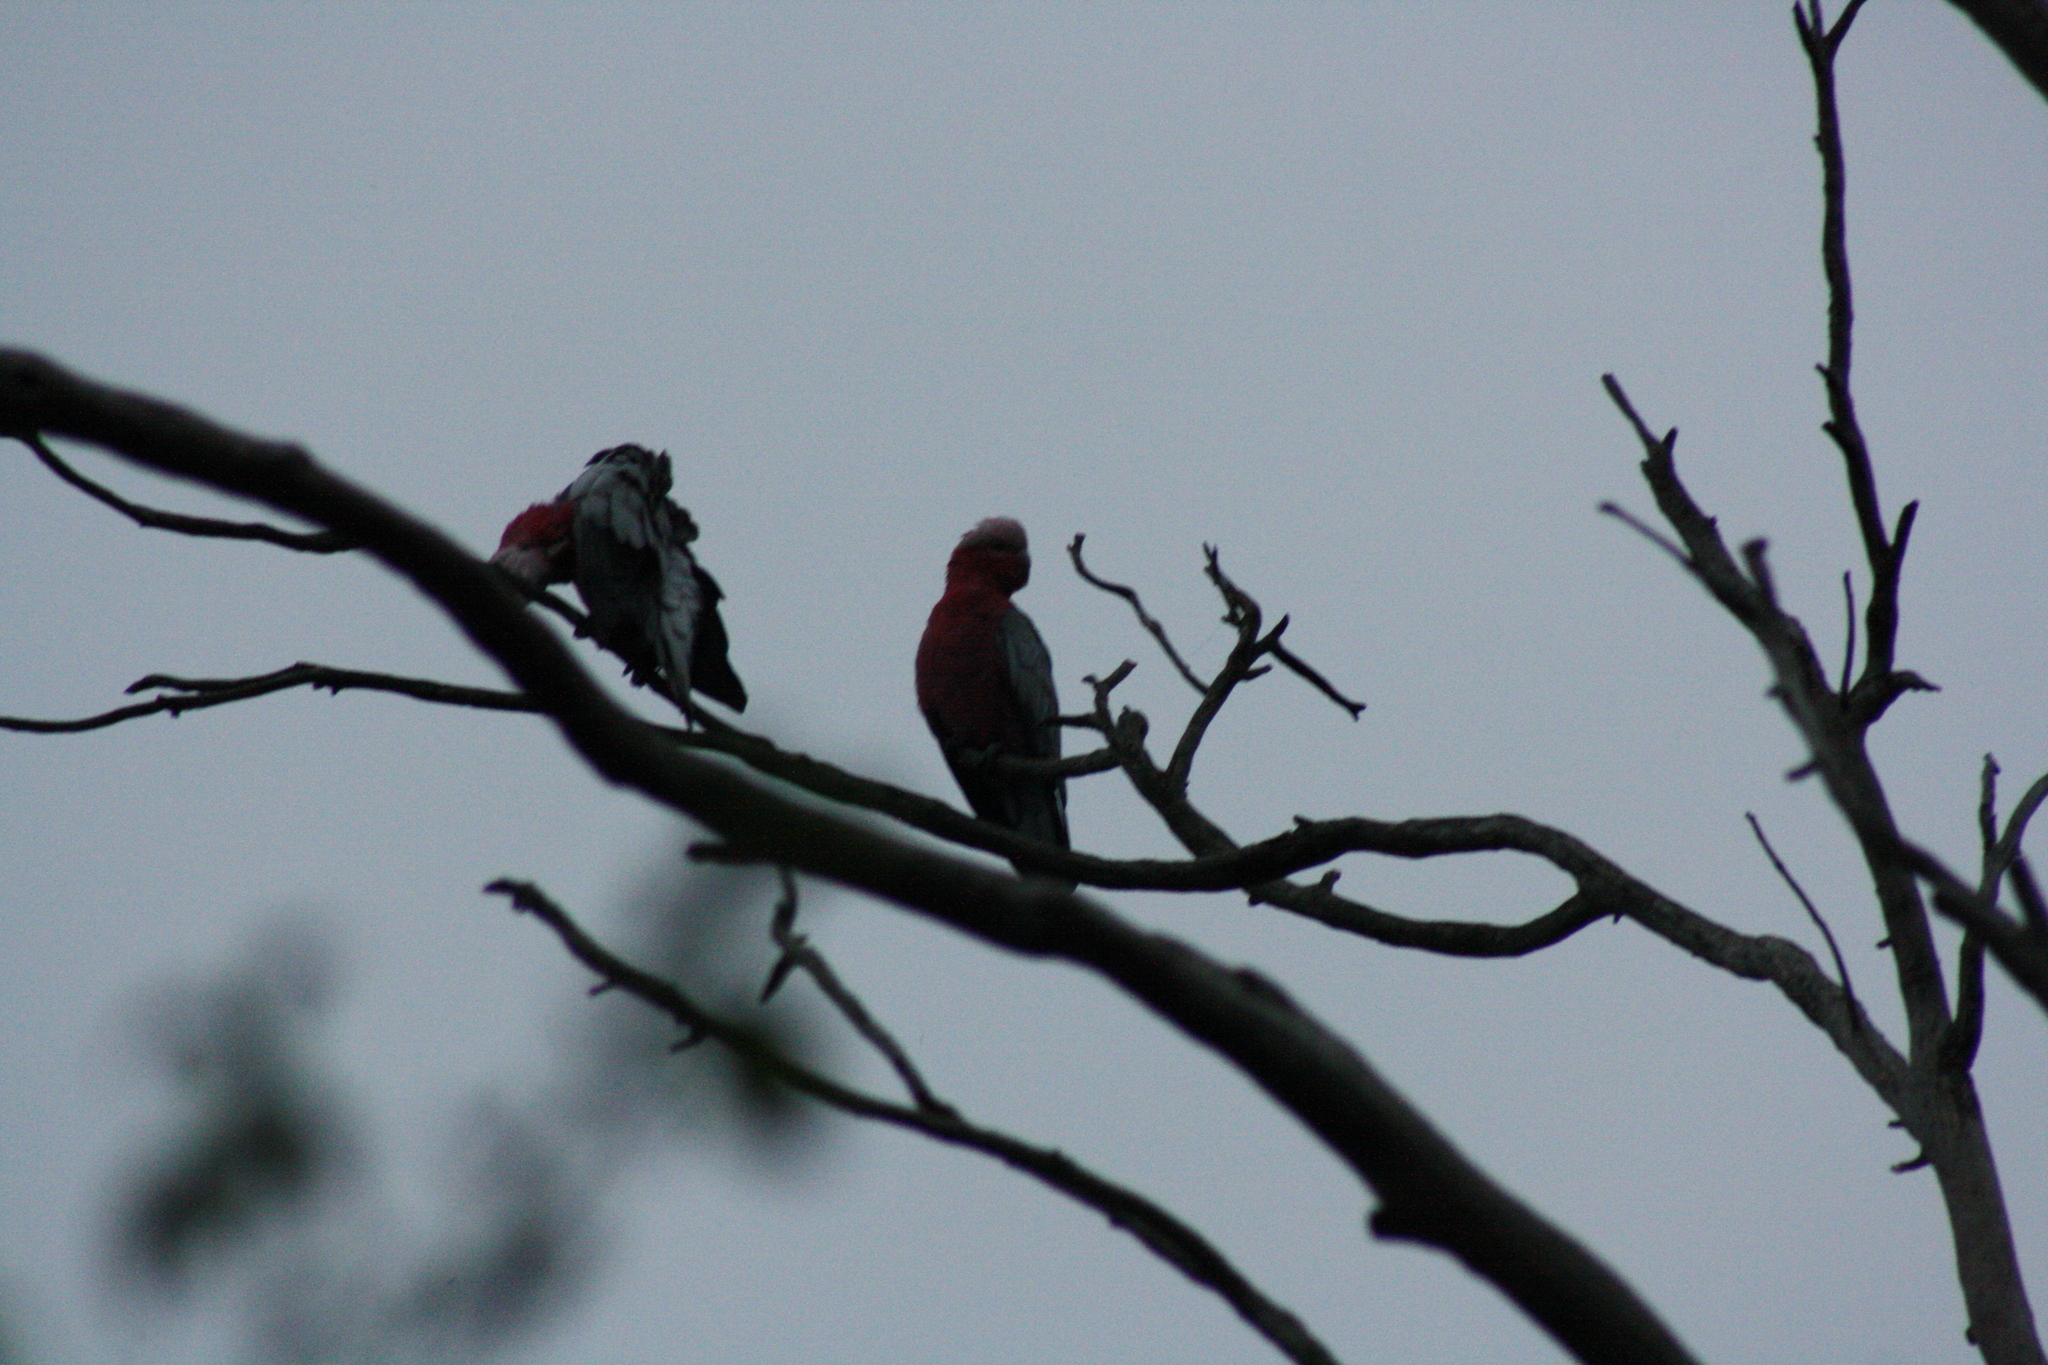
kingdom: Animalia
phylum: Chordata
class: Aves
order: Psittaciformes
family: Psittacidae
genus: Eolophus
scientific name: Eolophus roseicapilla
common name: Galah
